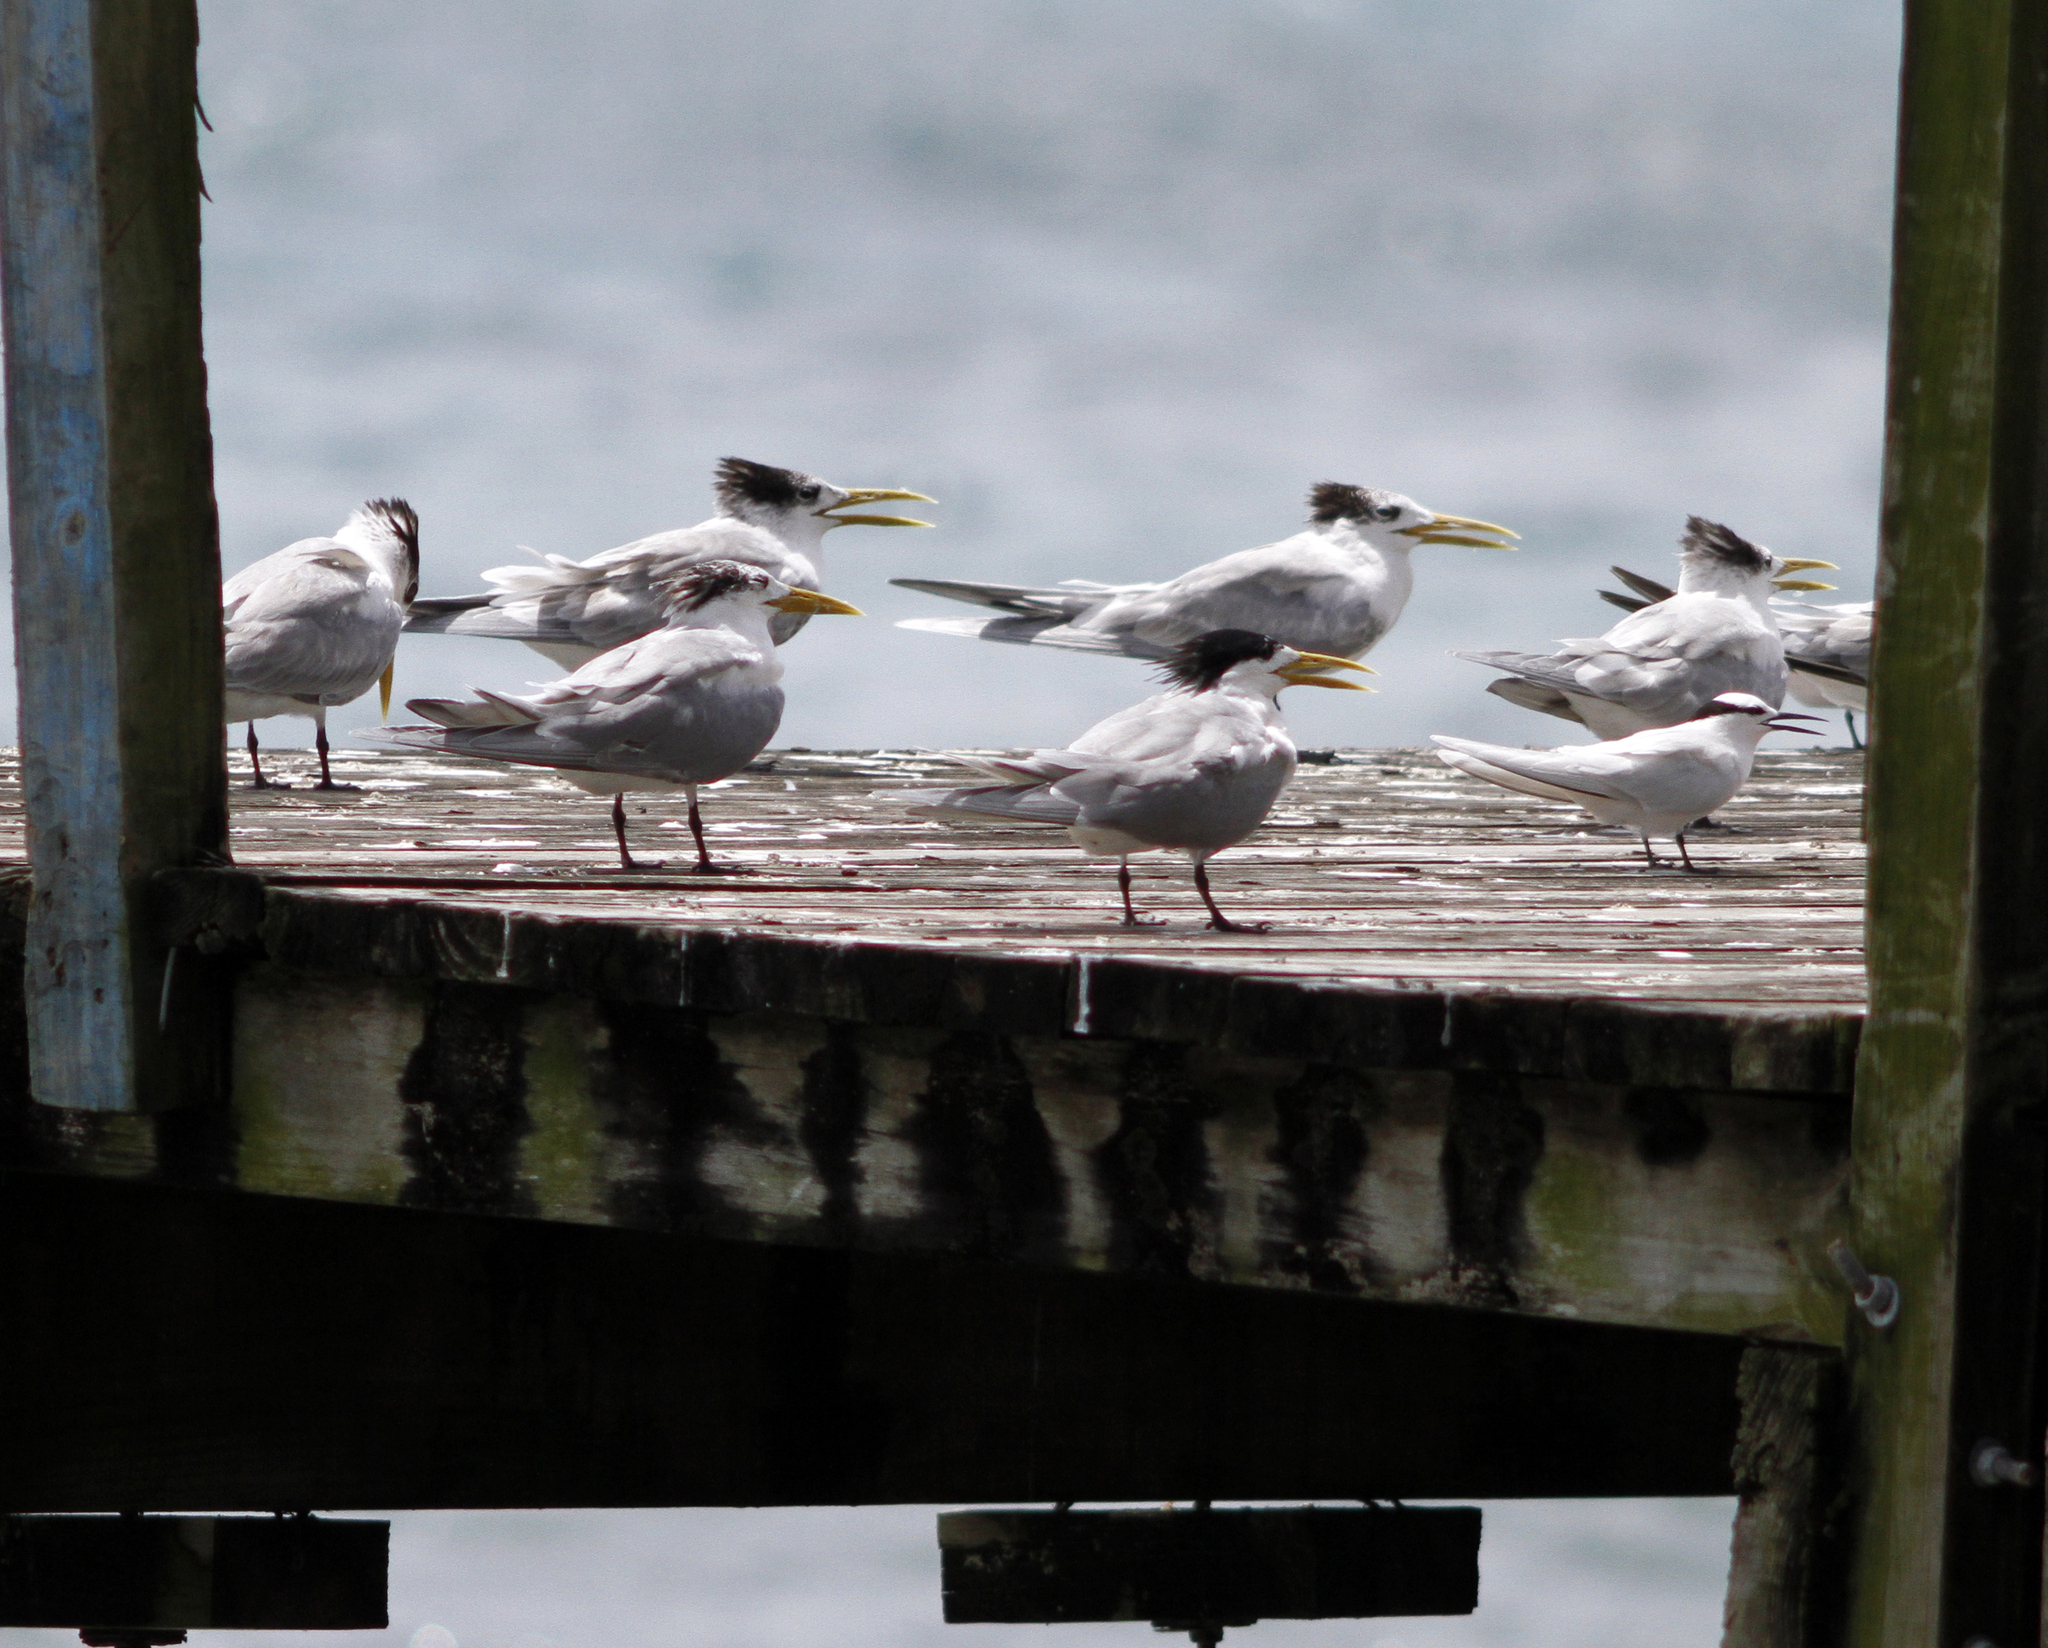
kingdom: Animalia
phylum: Chordata
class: Aves
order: Charadriiformes
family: Laridae
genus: Thalasseus
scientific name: Thalasseus bergii
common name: Greater crested tern
